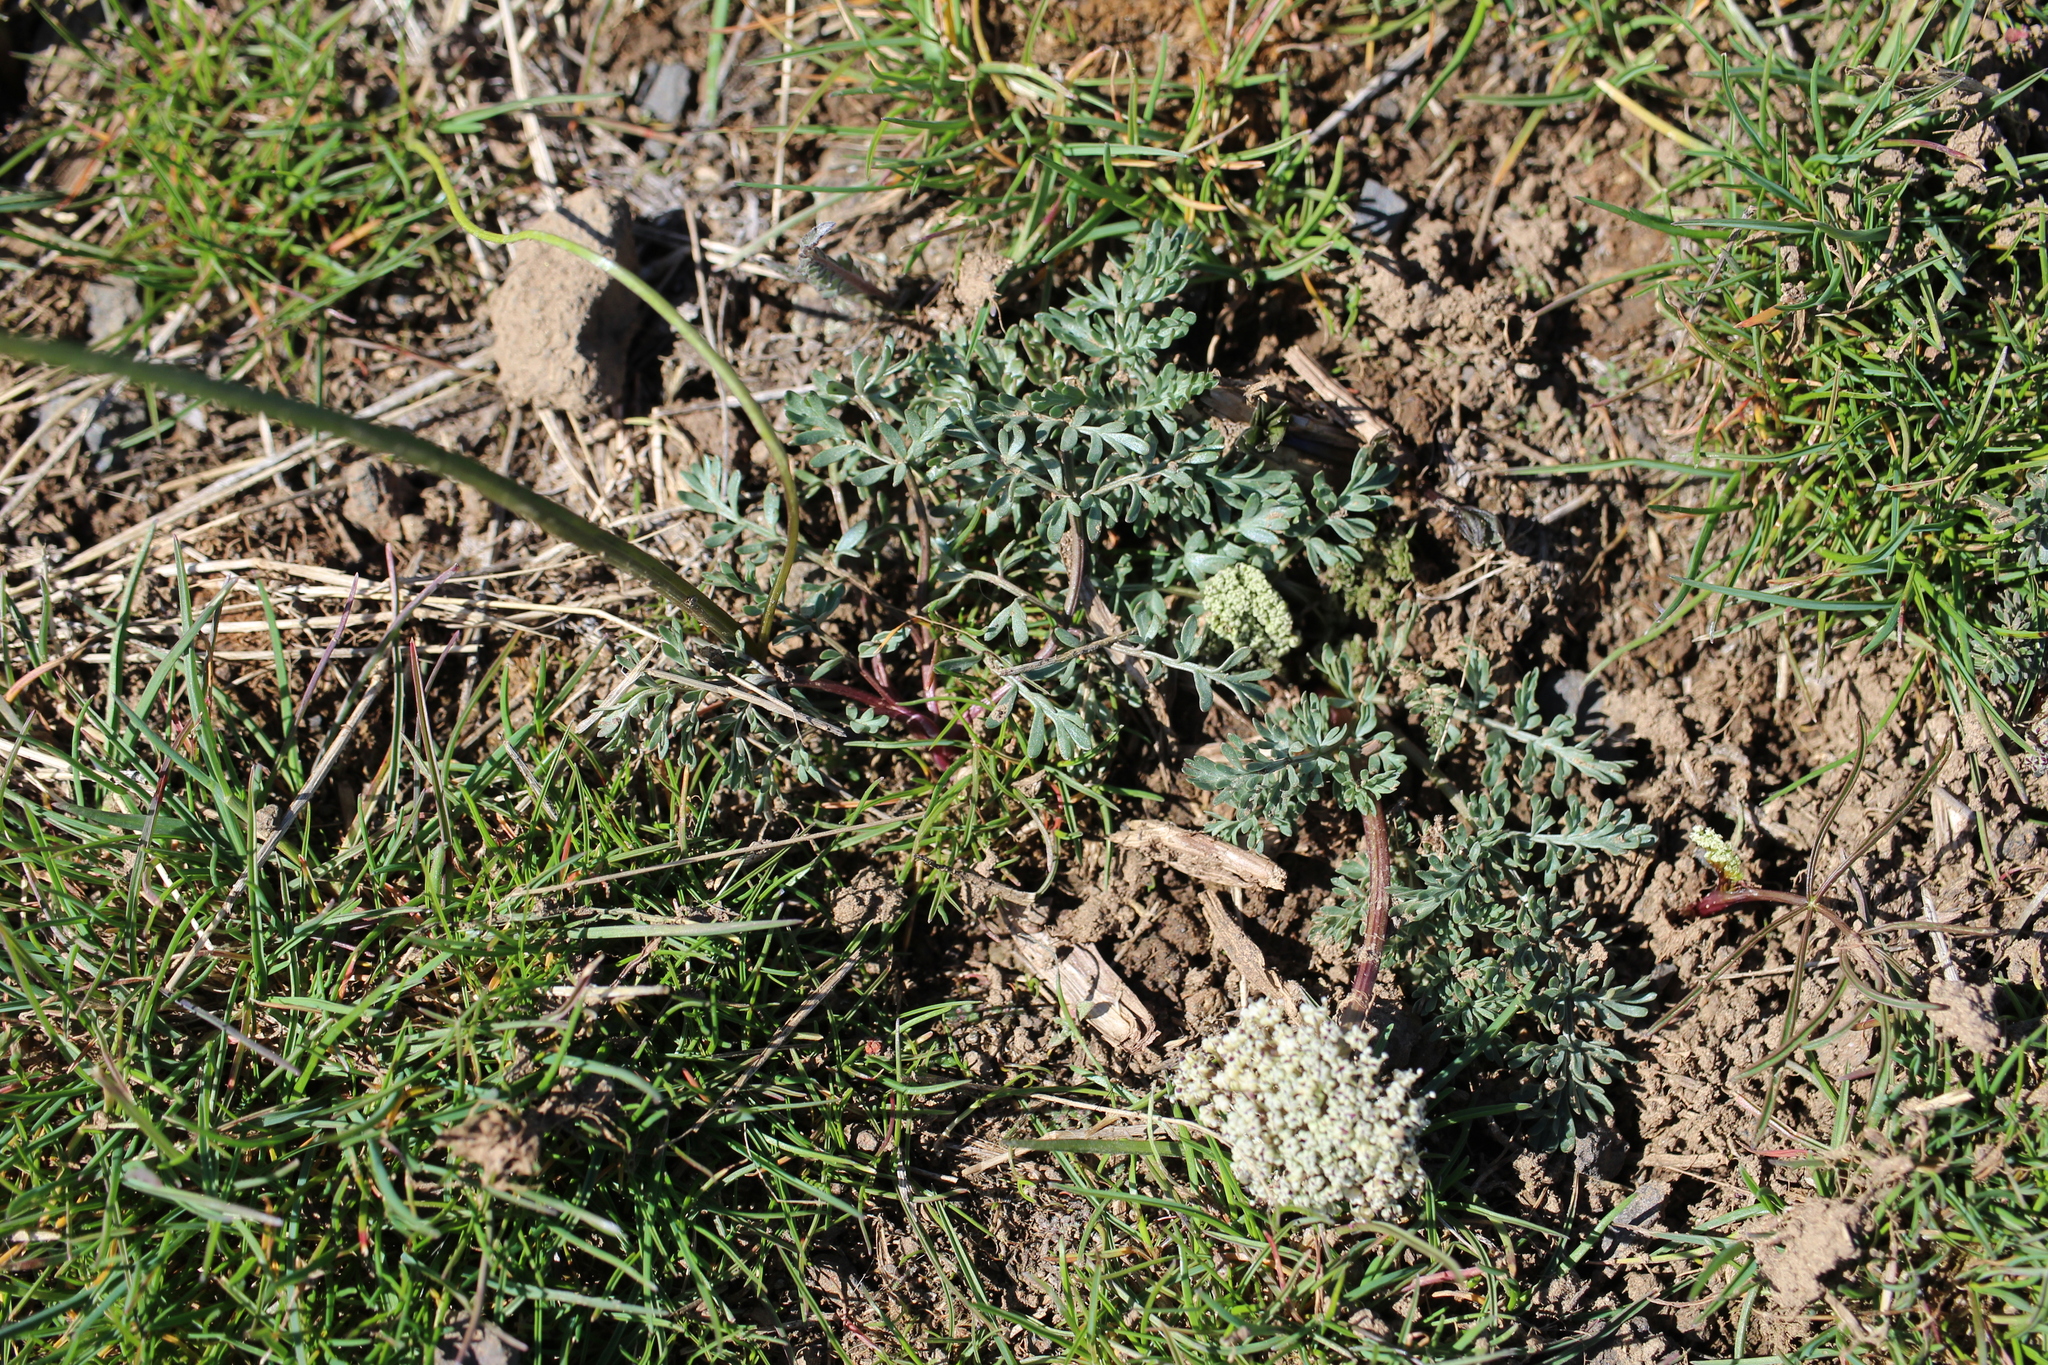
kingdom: Plantae
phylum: Tracheophyta
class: Magnoliopsida
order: Apiales
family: Apiaceae
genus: Lomatium
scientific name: Lomatium canbyi
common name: Chucklusa
